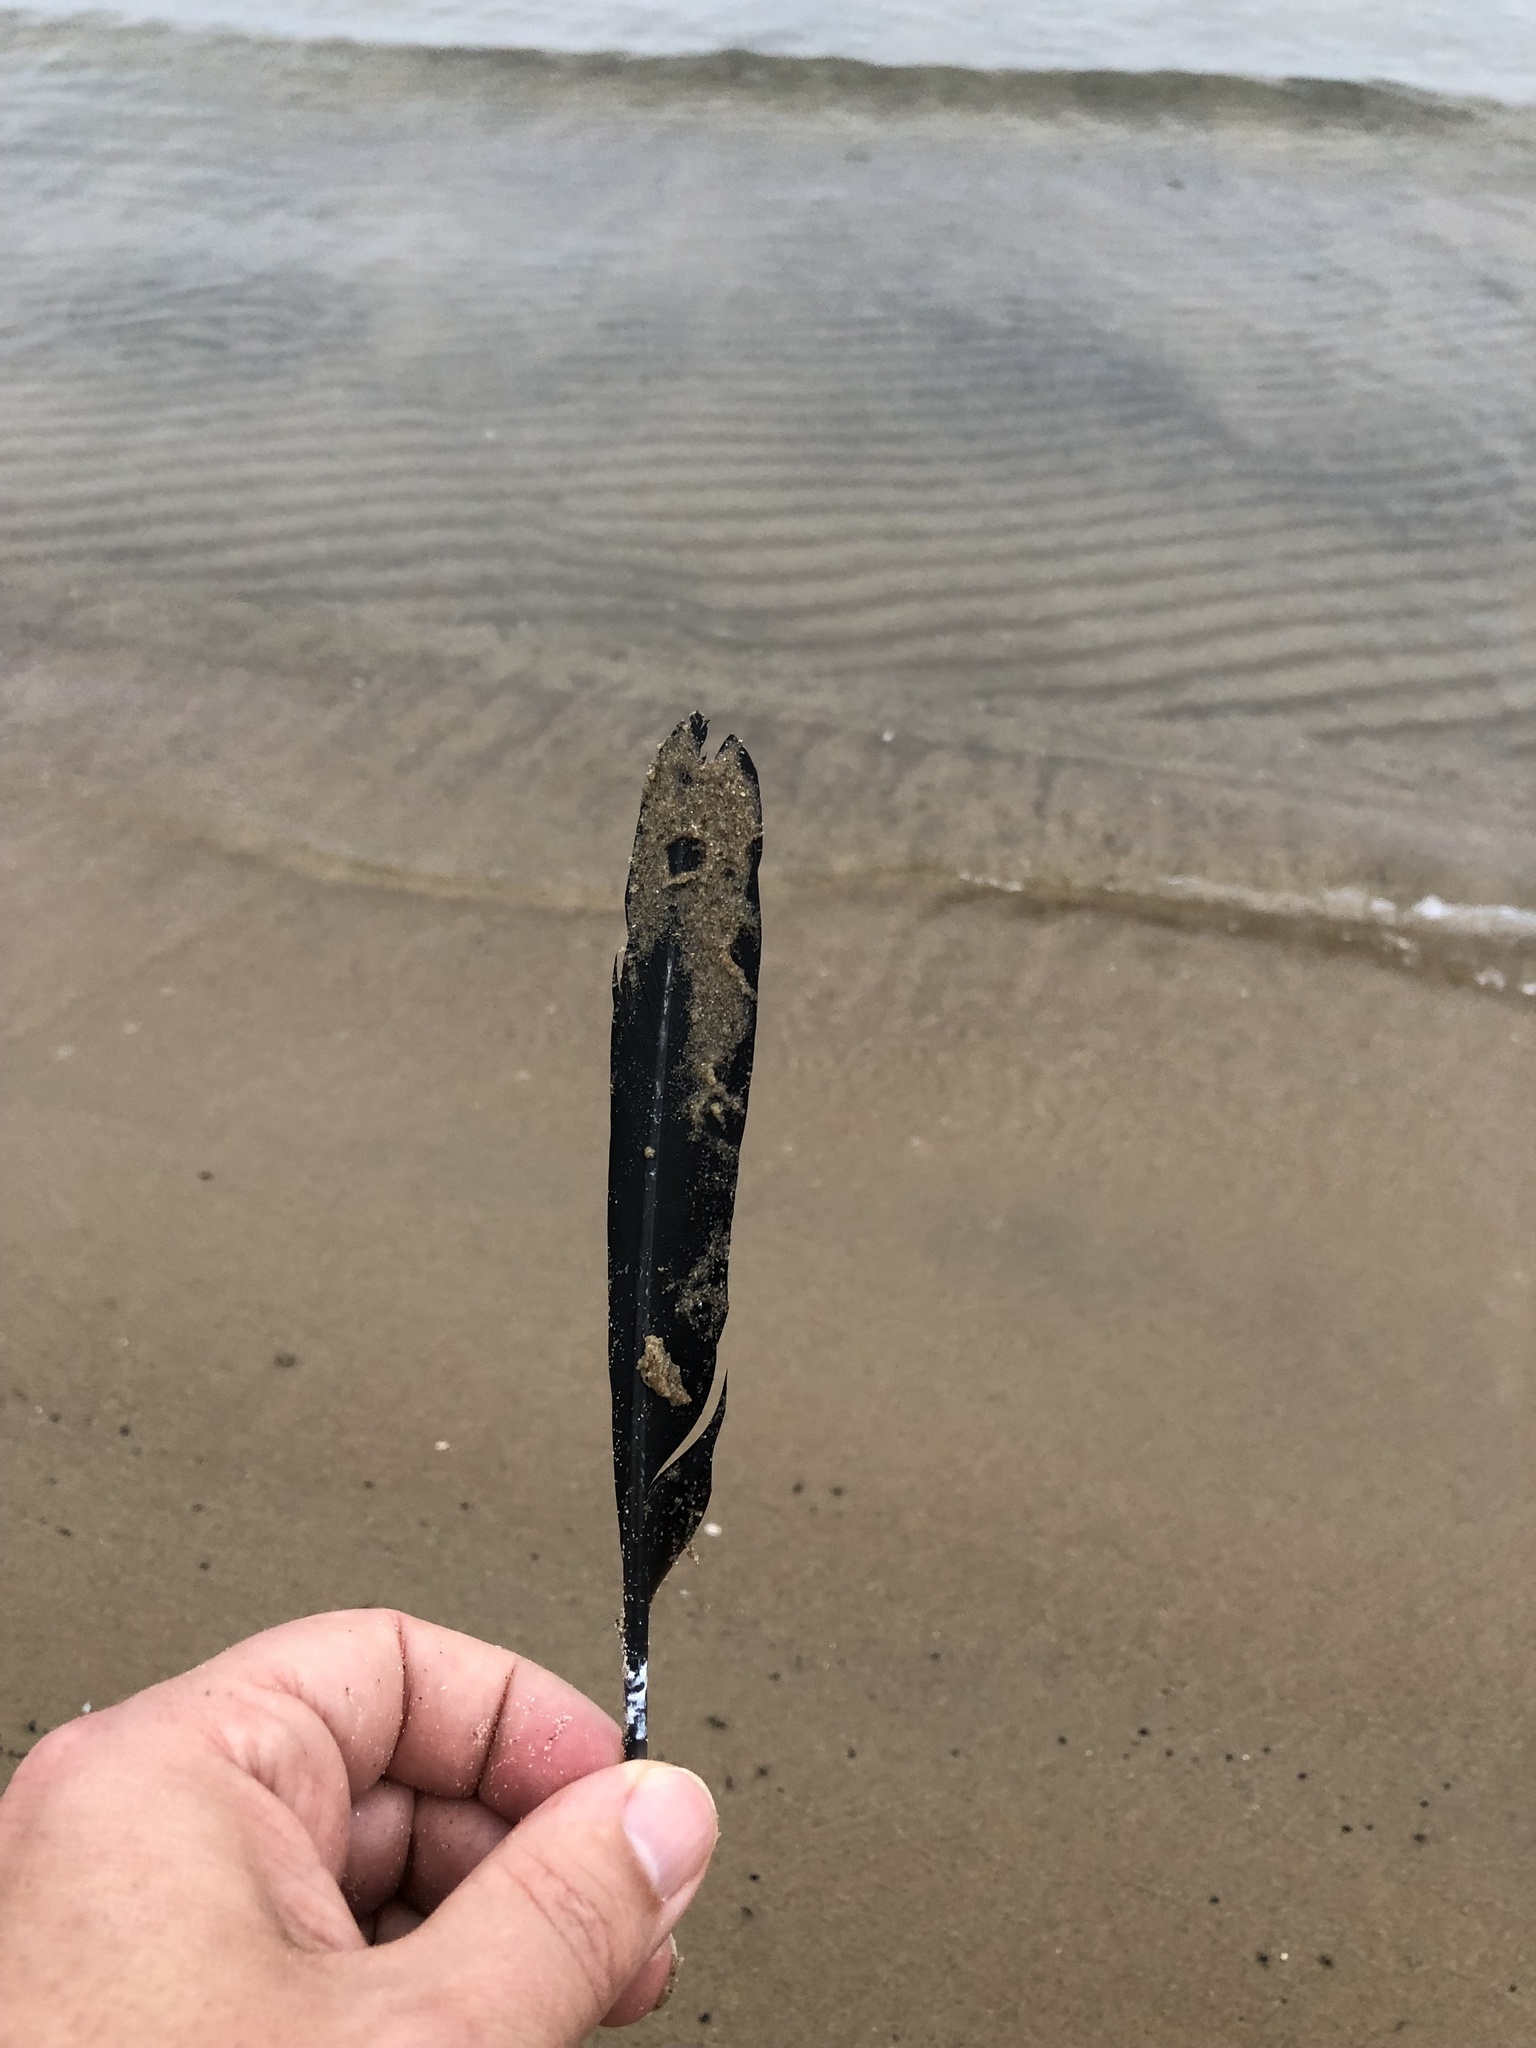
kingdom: Animalia
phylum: Chordata
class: Aves
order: Suliformes
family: Phalacrocoracidae
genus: Phalacrocorax
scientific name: Phalacrocorax auritus
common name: Double-crested cormorant
